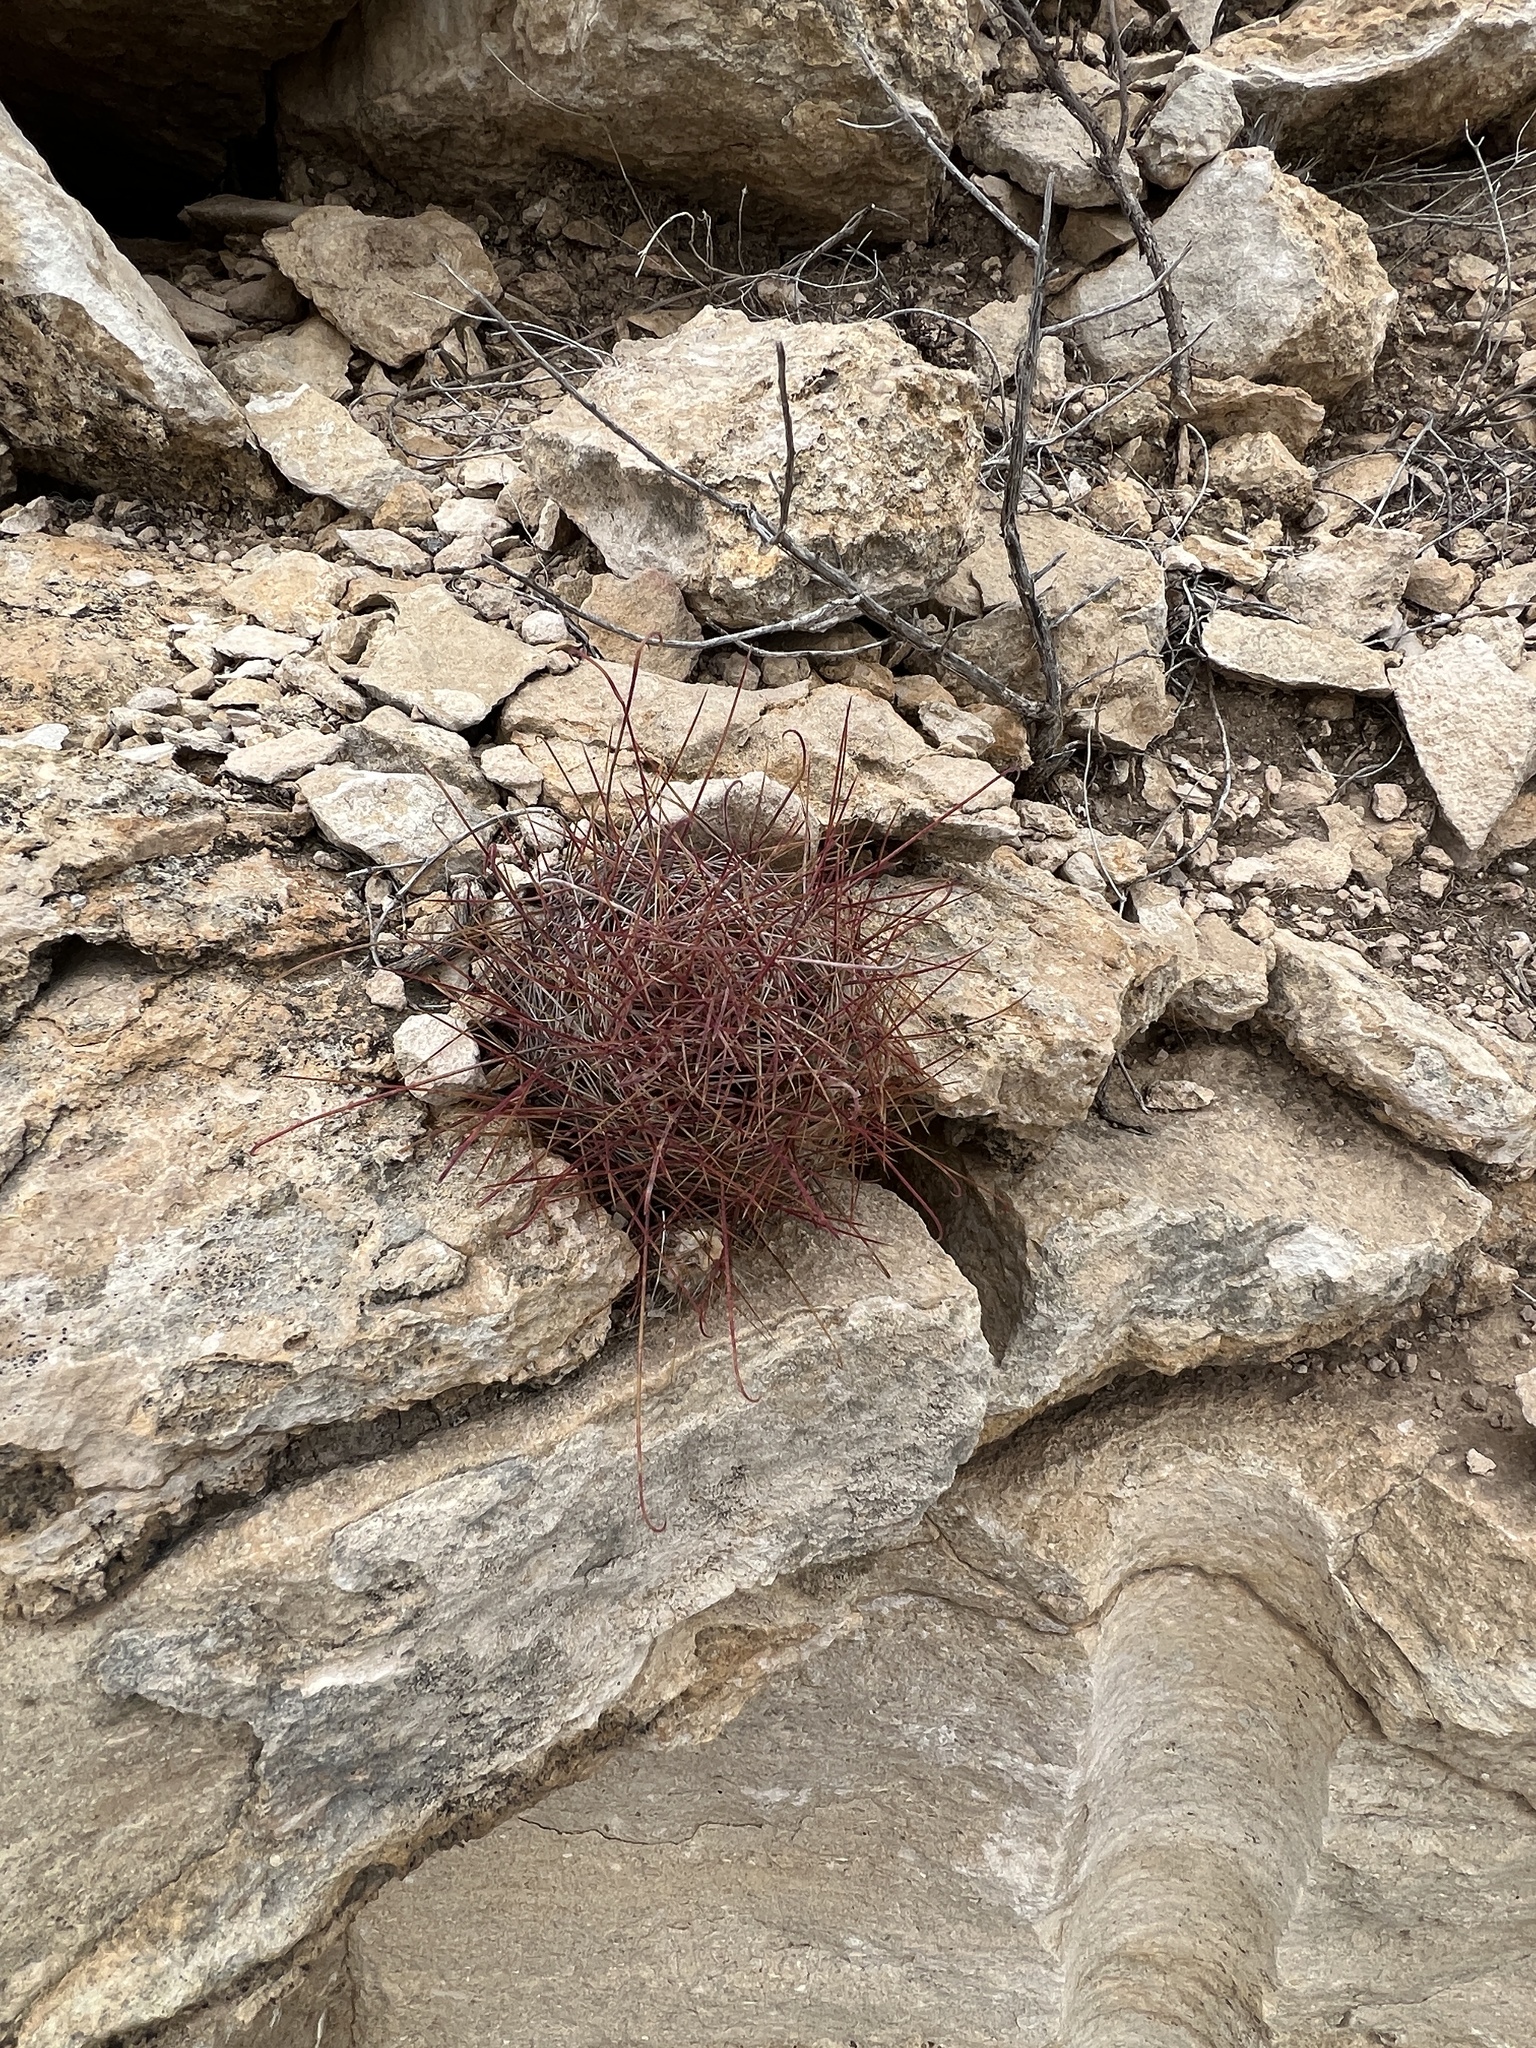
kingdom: Plantae
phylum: Tracheophyta
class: Magnoliopsida
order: Caryophyllales
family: Cactaceae
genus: Bisnaga
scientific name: Bisnaga hamatacantha
